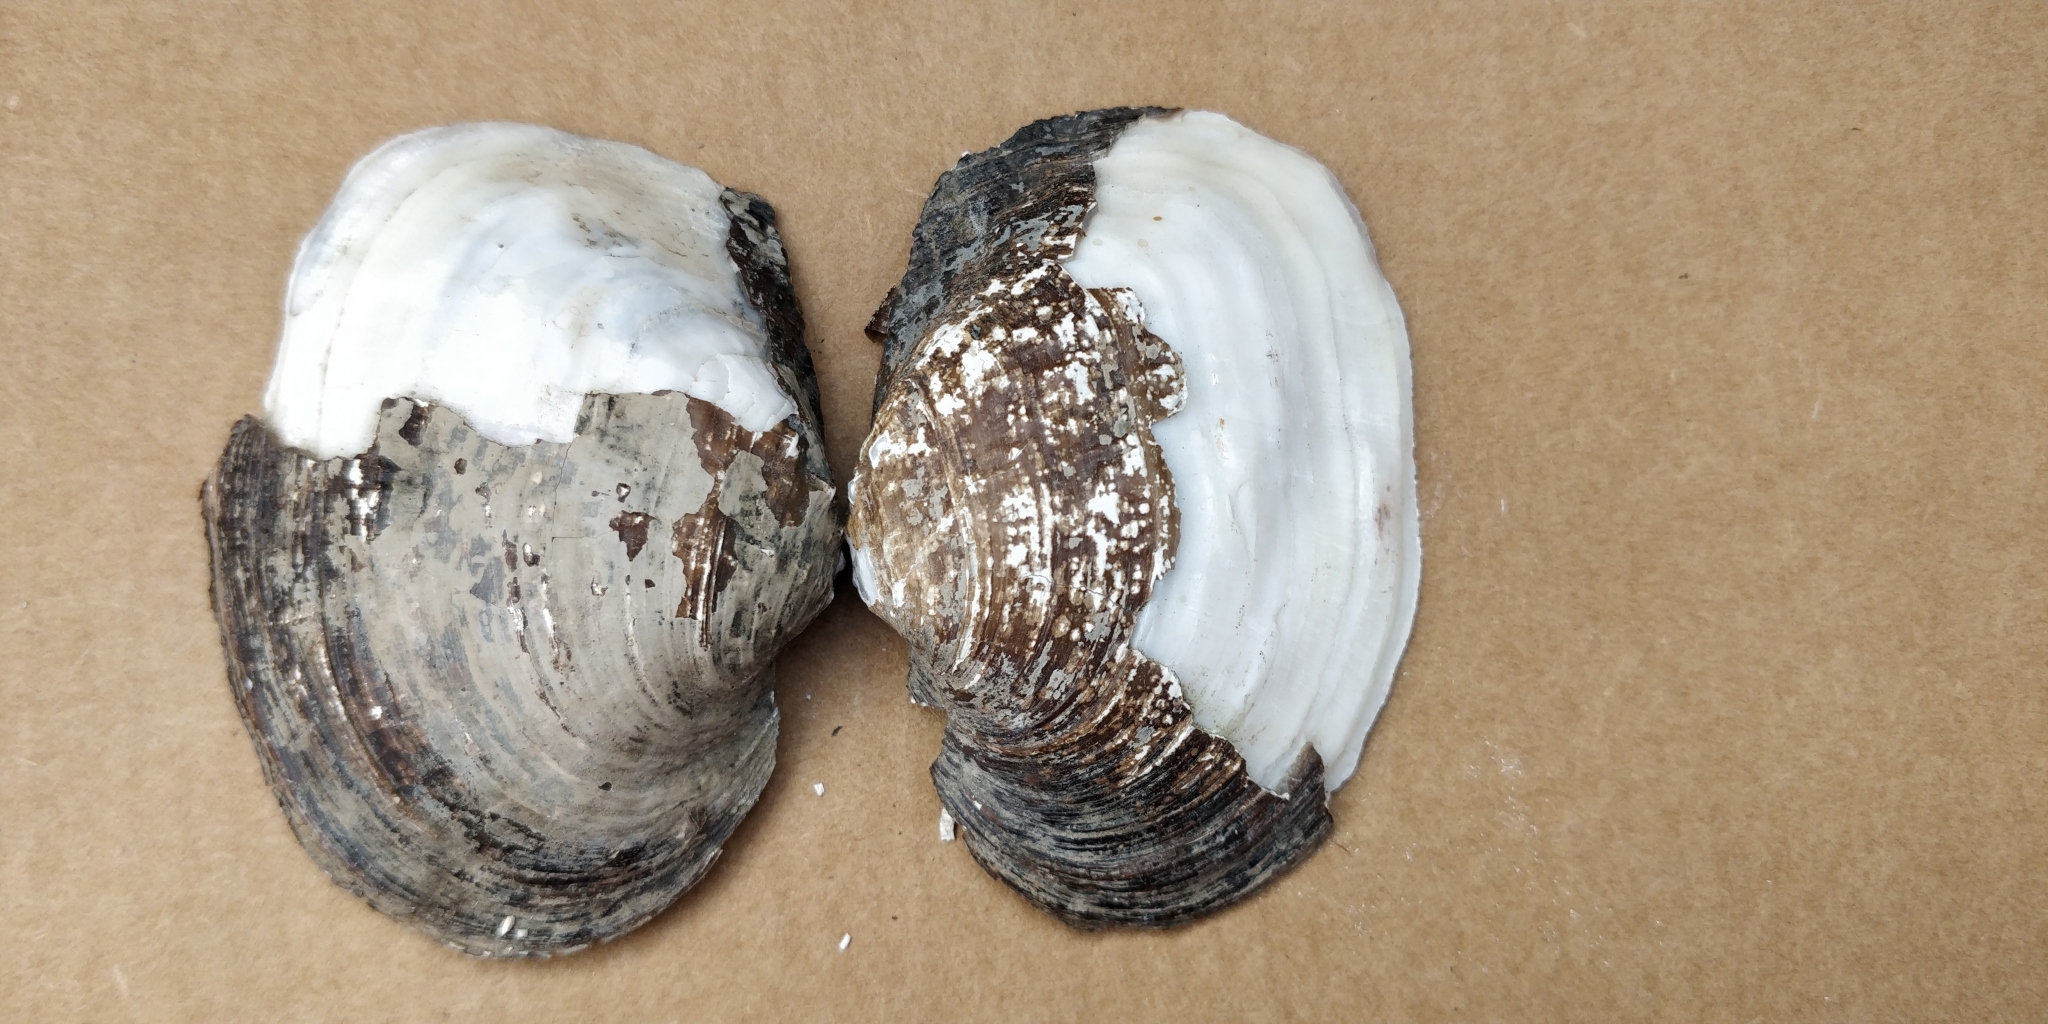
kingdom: Animalia
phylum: Mollusca
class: Bivalvia
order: Unionida
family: Unionidae
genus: Arcidens
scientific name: Arcidens confragosus
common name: Rock pocketbook
